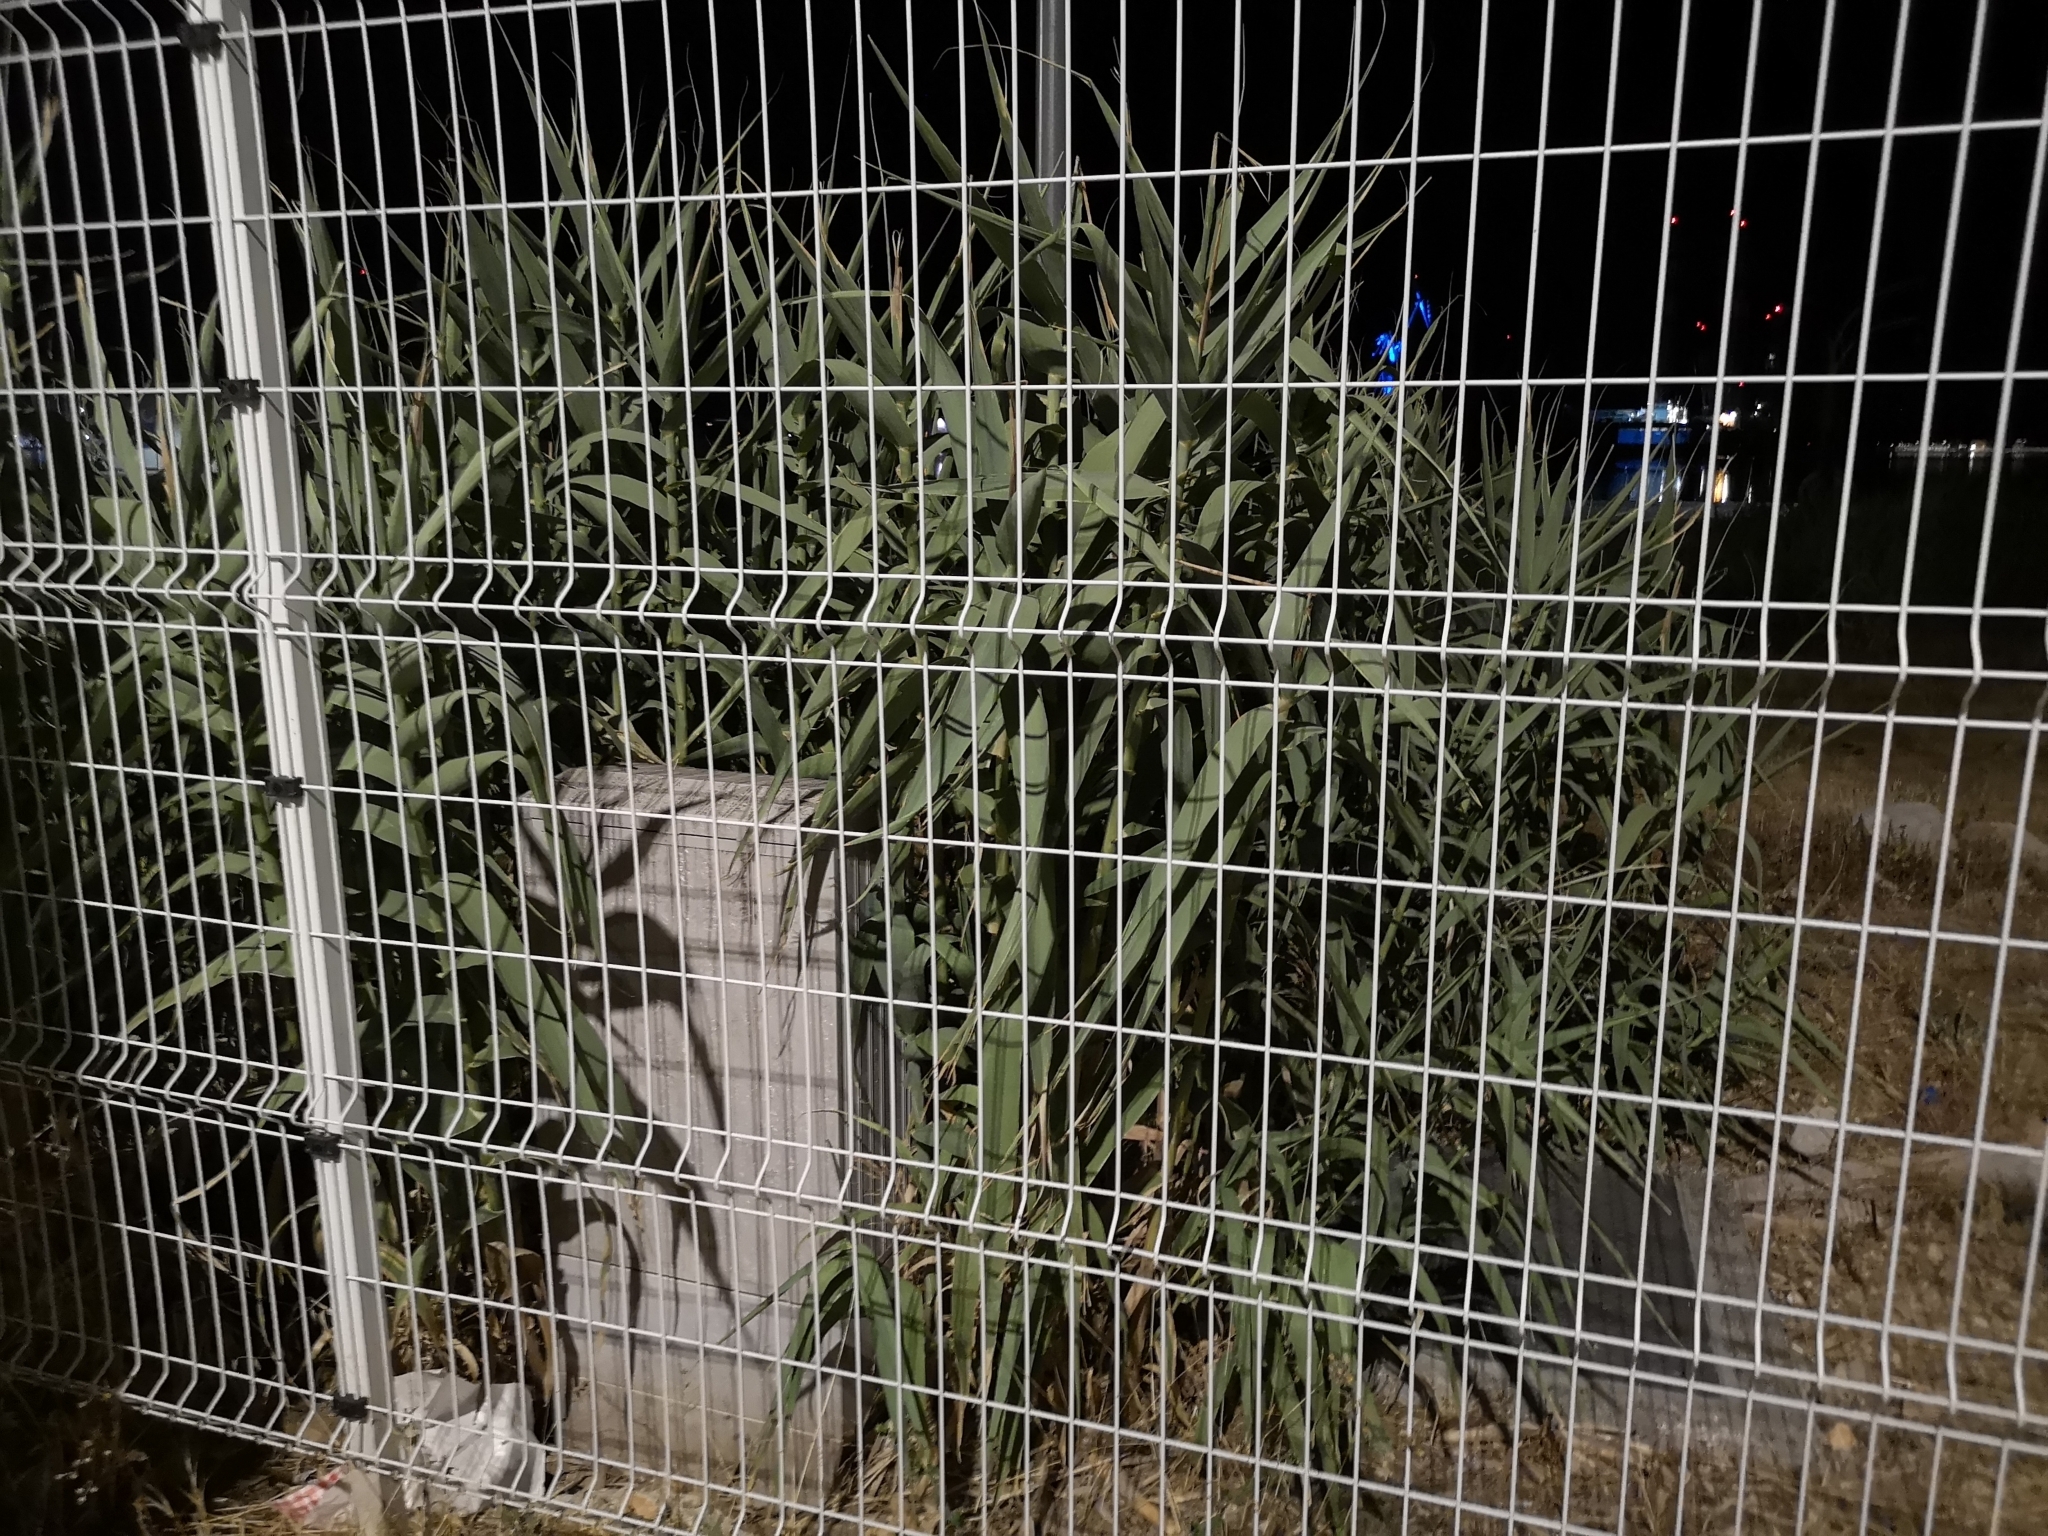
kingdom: Plantae
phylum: Tracheophyta
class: Liliopsida
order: Poales
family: Poaceae
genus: Arundo
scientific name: Arundo donax
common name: Giant reed
